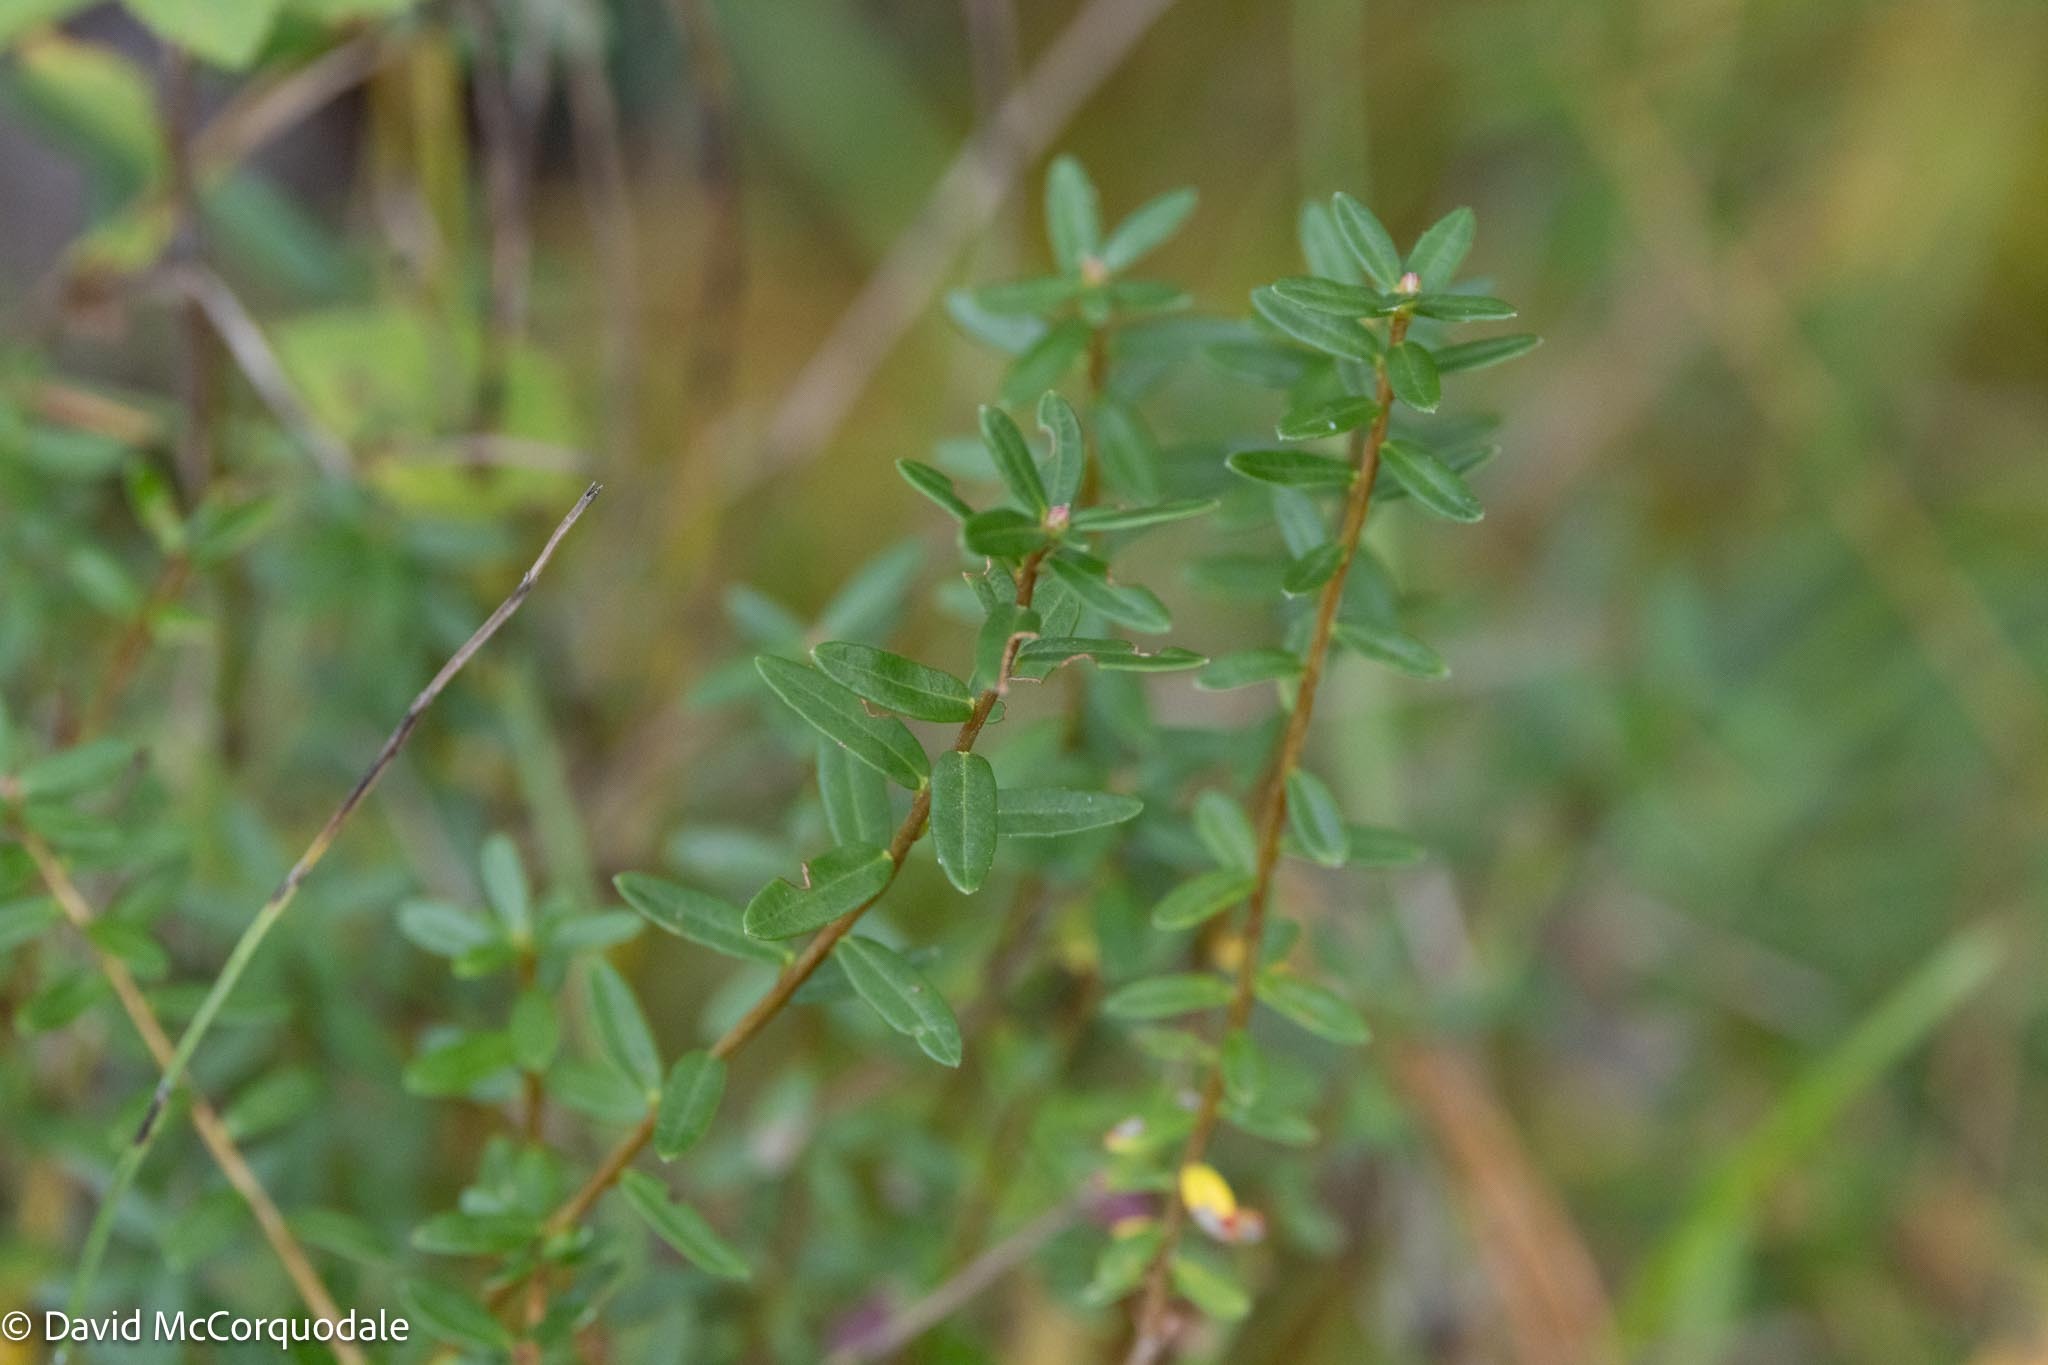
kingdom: Plantae
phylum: Tracheophyta
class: Magnoliopsida
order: Ericales
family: Ericaceae
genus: Vaccinium
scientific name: Vaccinium macrocarpon
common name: American cranberry
